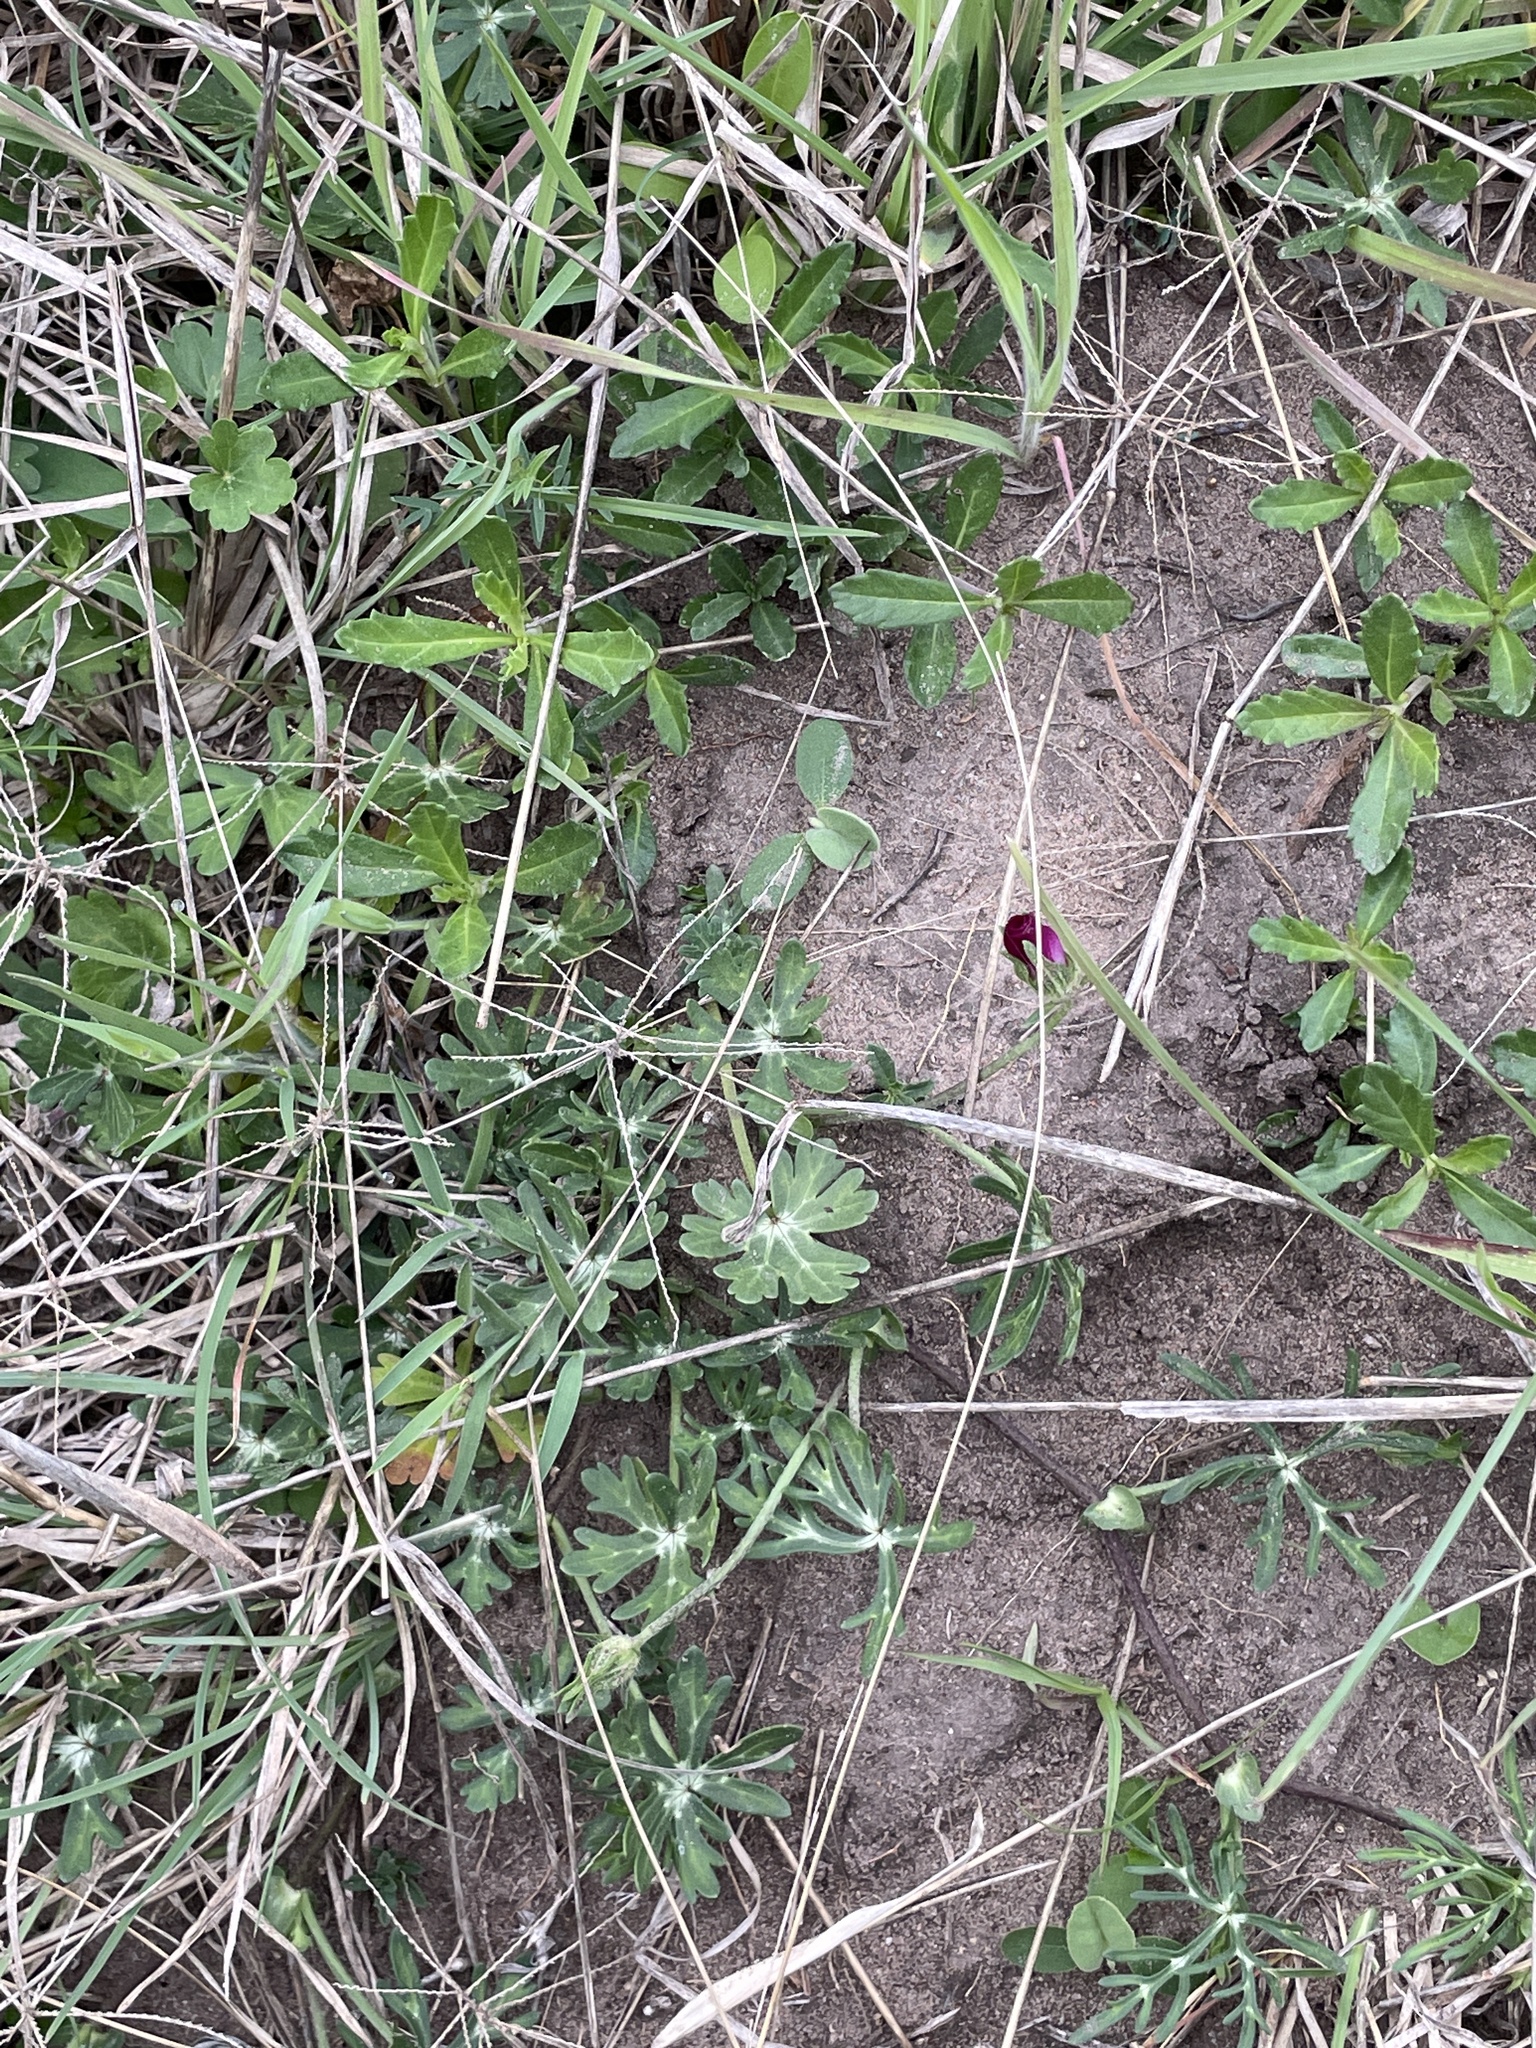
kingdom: Plantae
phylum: Tracheophyta
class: Magnoliopsida
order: Malvales
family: Malvaceae
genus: Callirhoe
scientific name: Callirhoe involucrata
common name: Purple poppy-mallow
